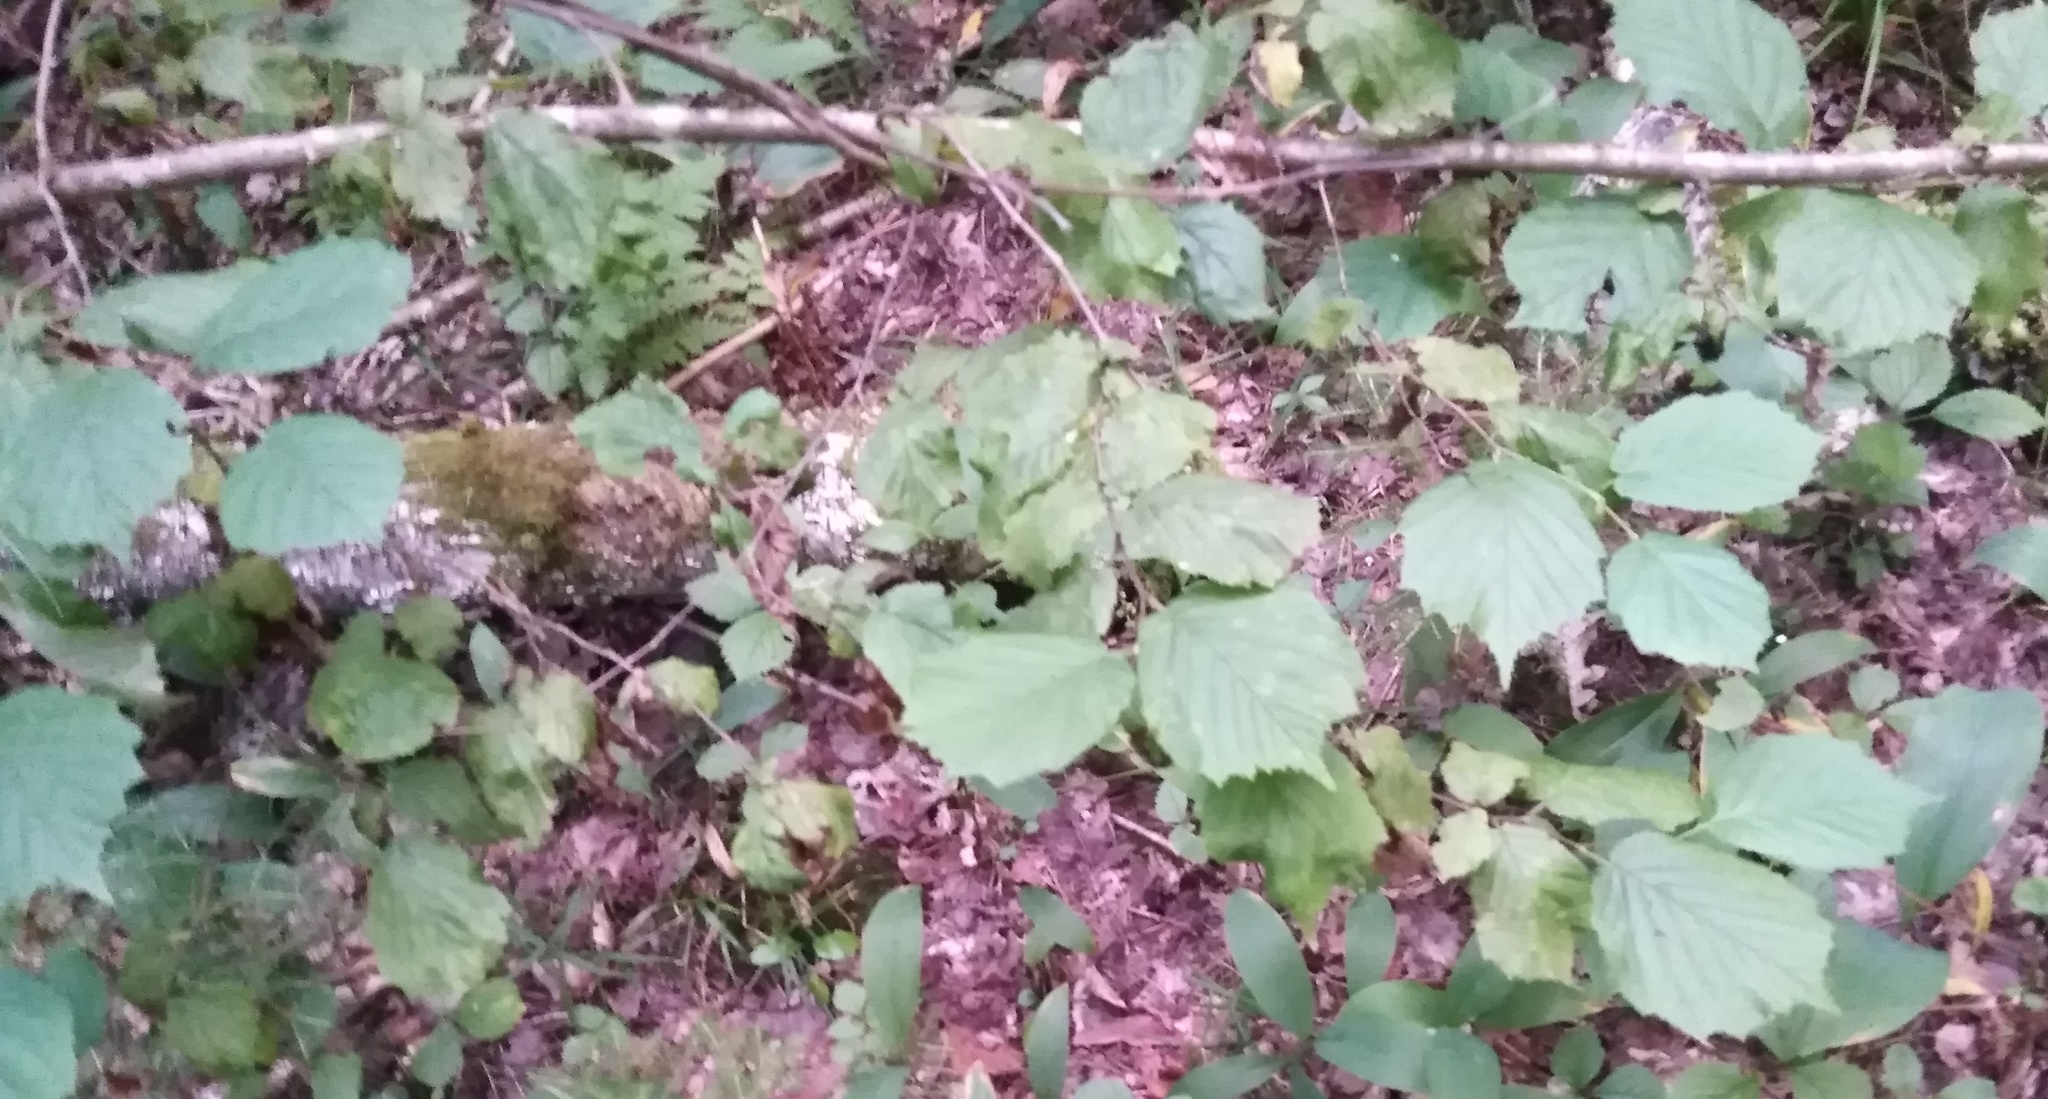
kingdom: Plantae
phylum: Tracheophyta
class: Magnoliopsida
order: Fagales
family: Betulaceae
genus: Corylus
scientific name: Corylus avellana
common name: European hazel
